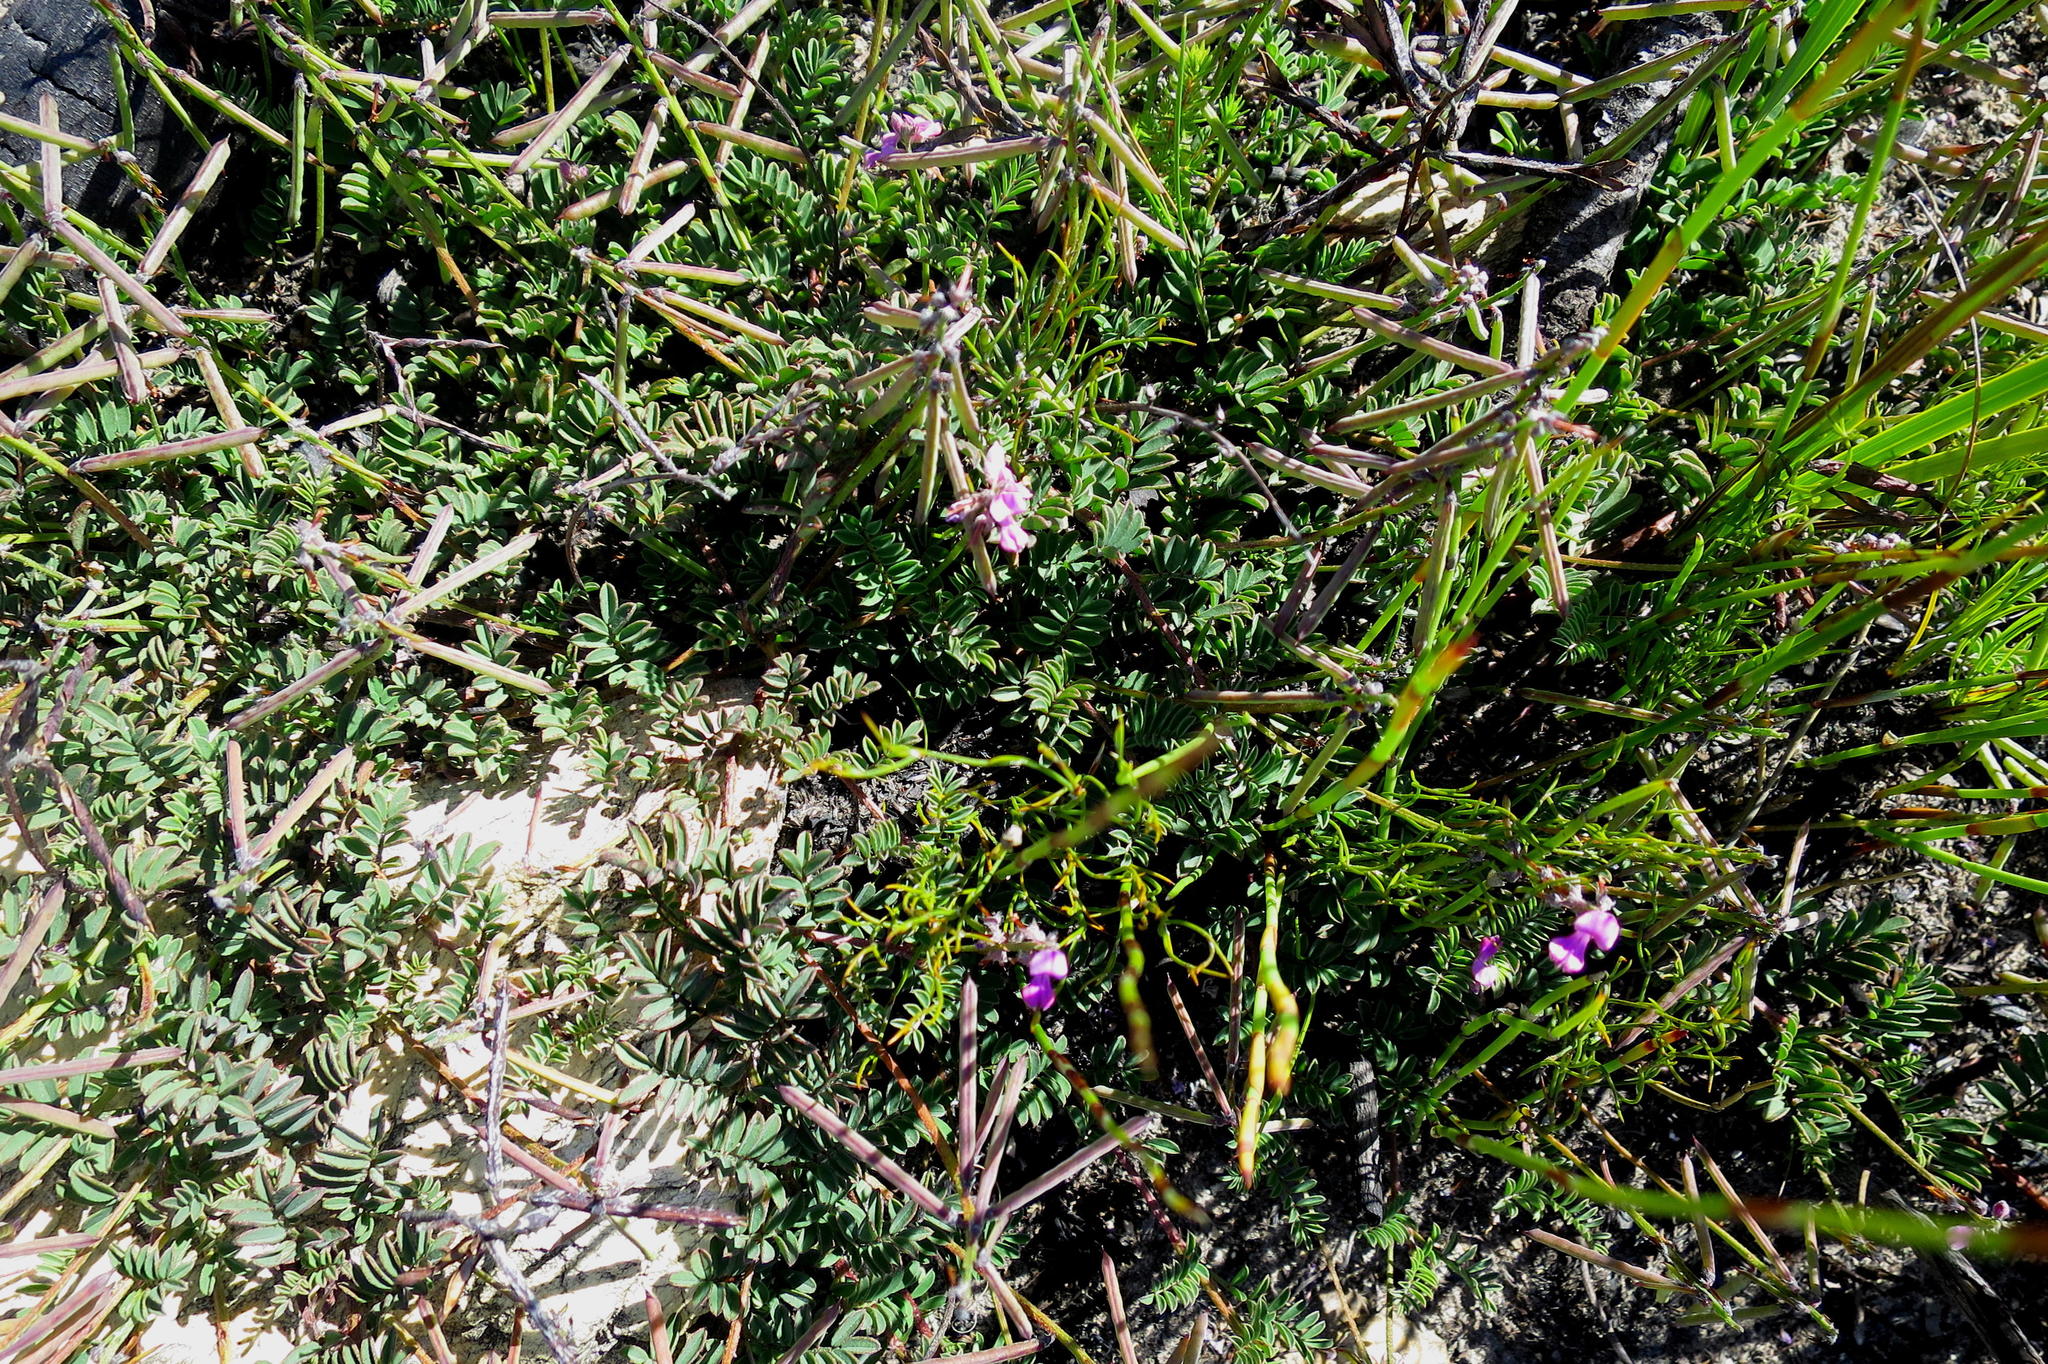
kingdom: Plantae
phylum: Tracheophyta
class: Magnoliopsida
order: Fabales
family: Fabaceae
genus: Indigofera
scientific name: Indigofera declinata
